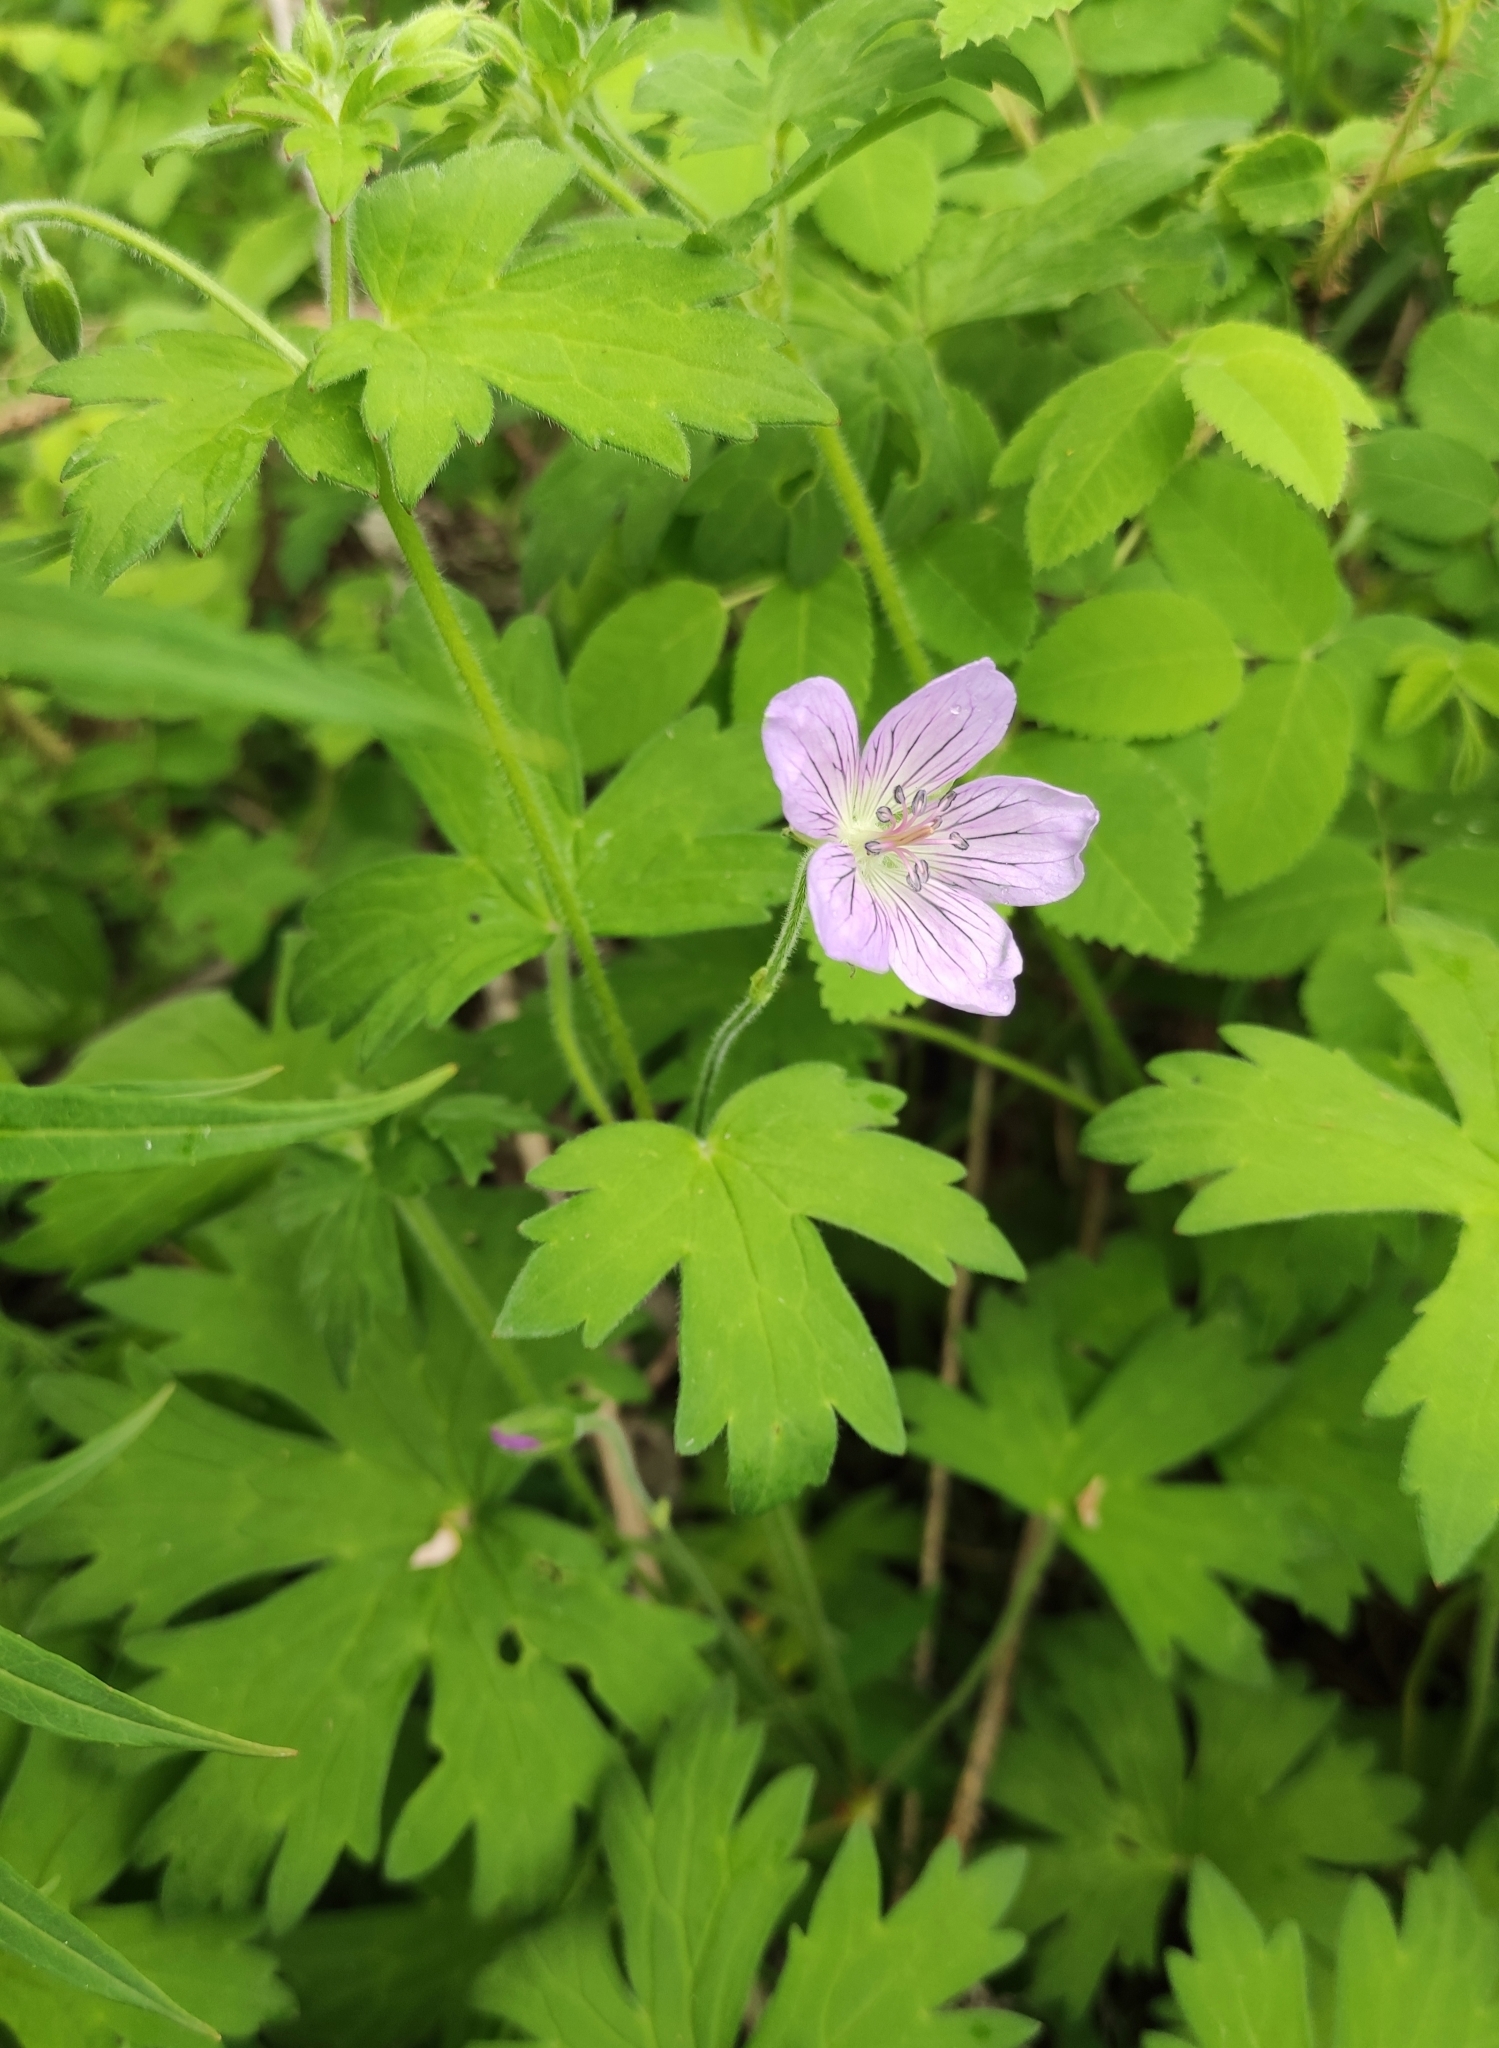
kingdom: Plantae
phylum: Tracheophyta
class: Magnoliopsida
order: Geraniales
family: Geraniaceae
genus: Geranium
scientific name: Geranium wlassovianum
